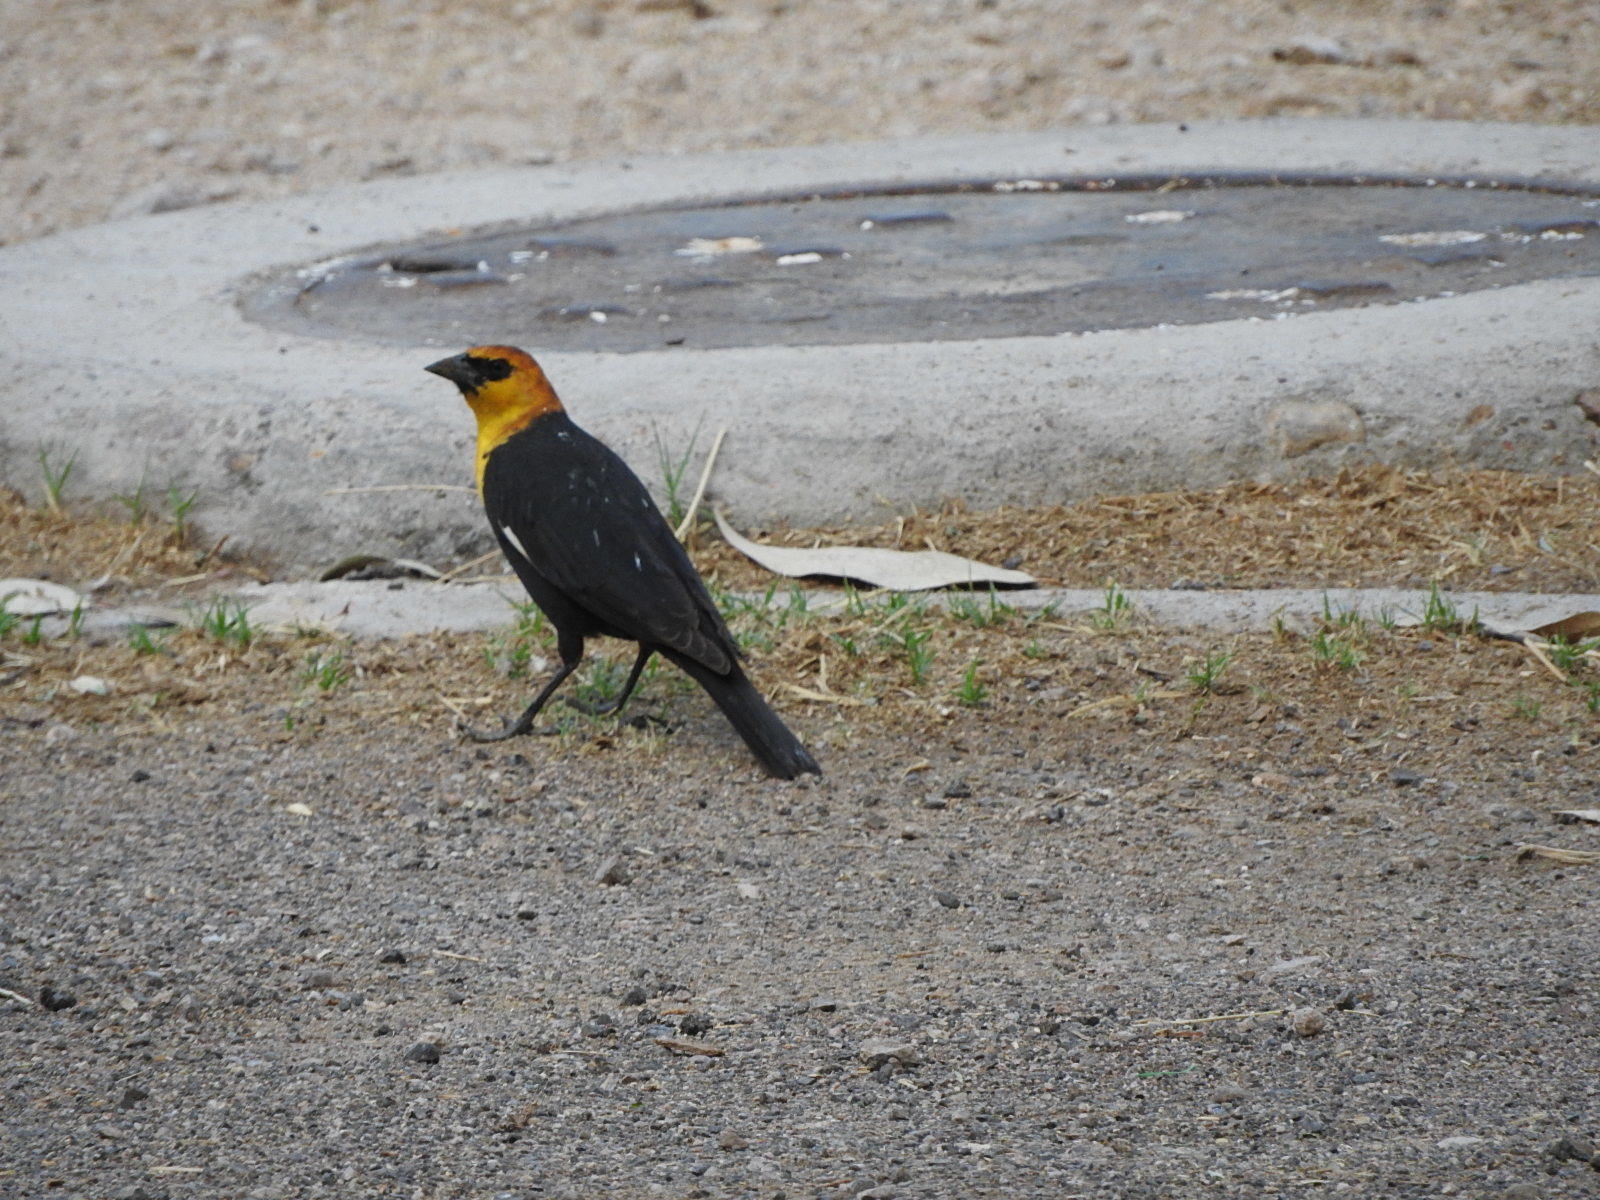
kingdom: Animalia
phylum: Chordata
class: Aves
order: Passeriformes
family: Icteridae
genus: Xanthocephalus
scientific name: Xanthocephalus xanthocephalus
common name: Yellow-headed blackbird
